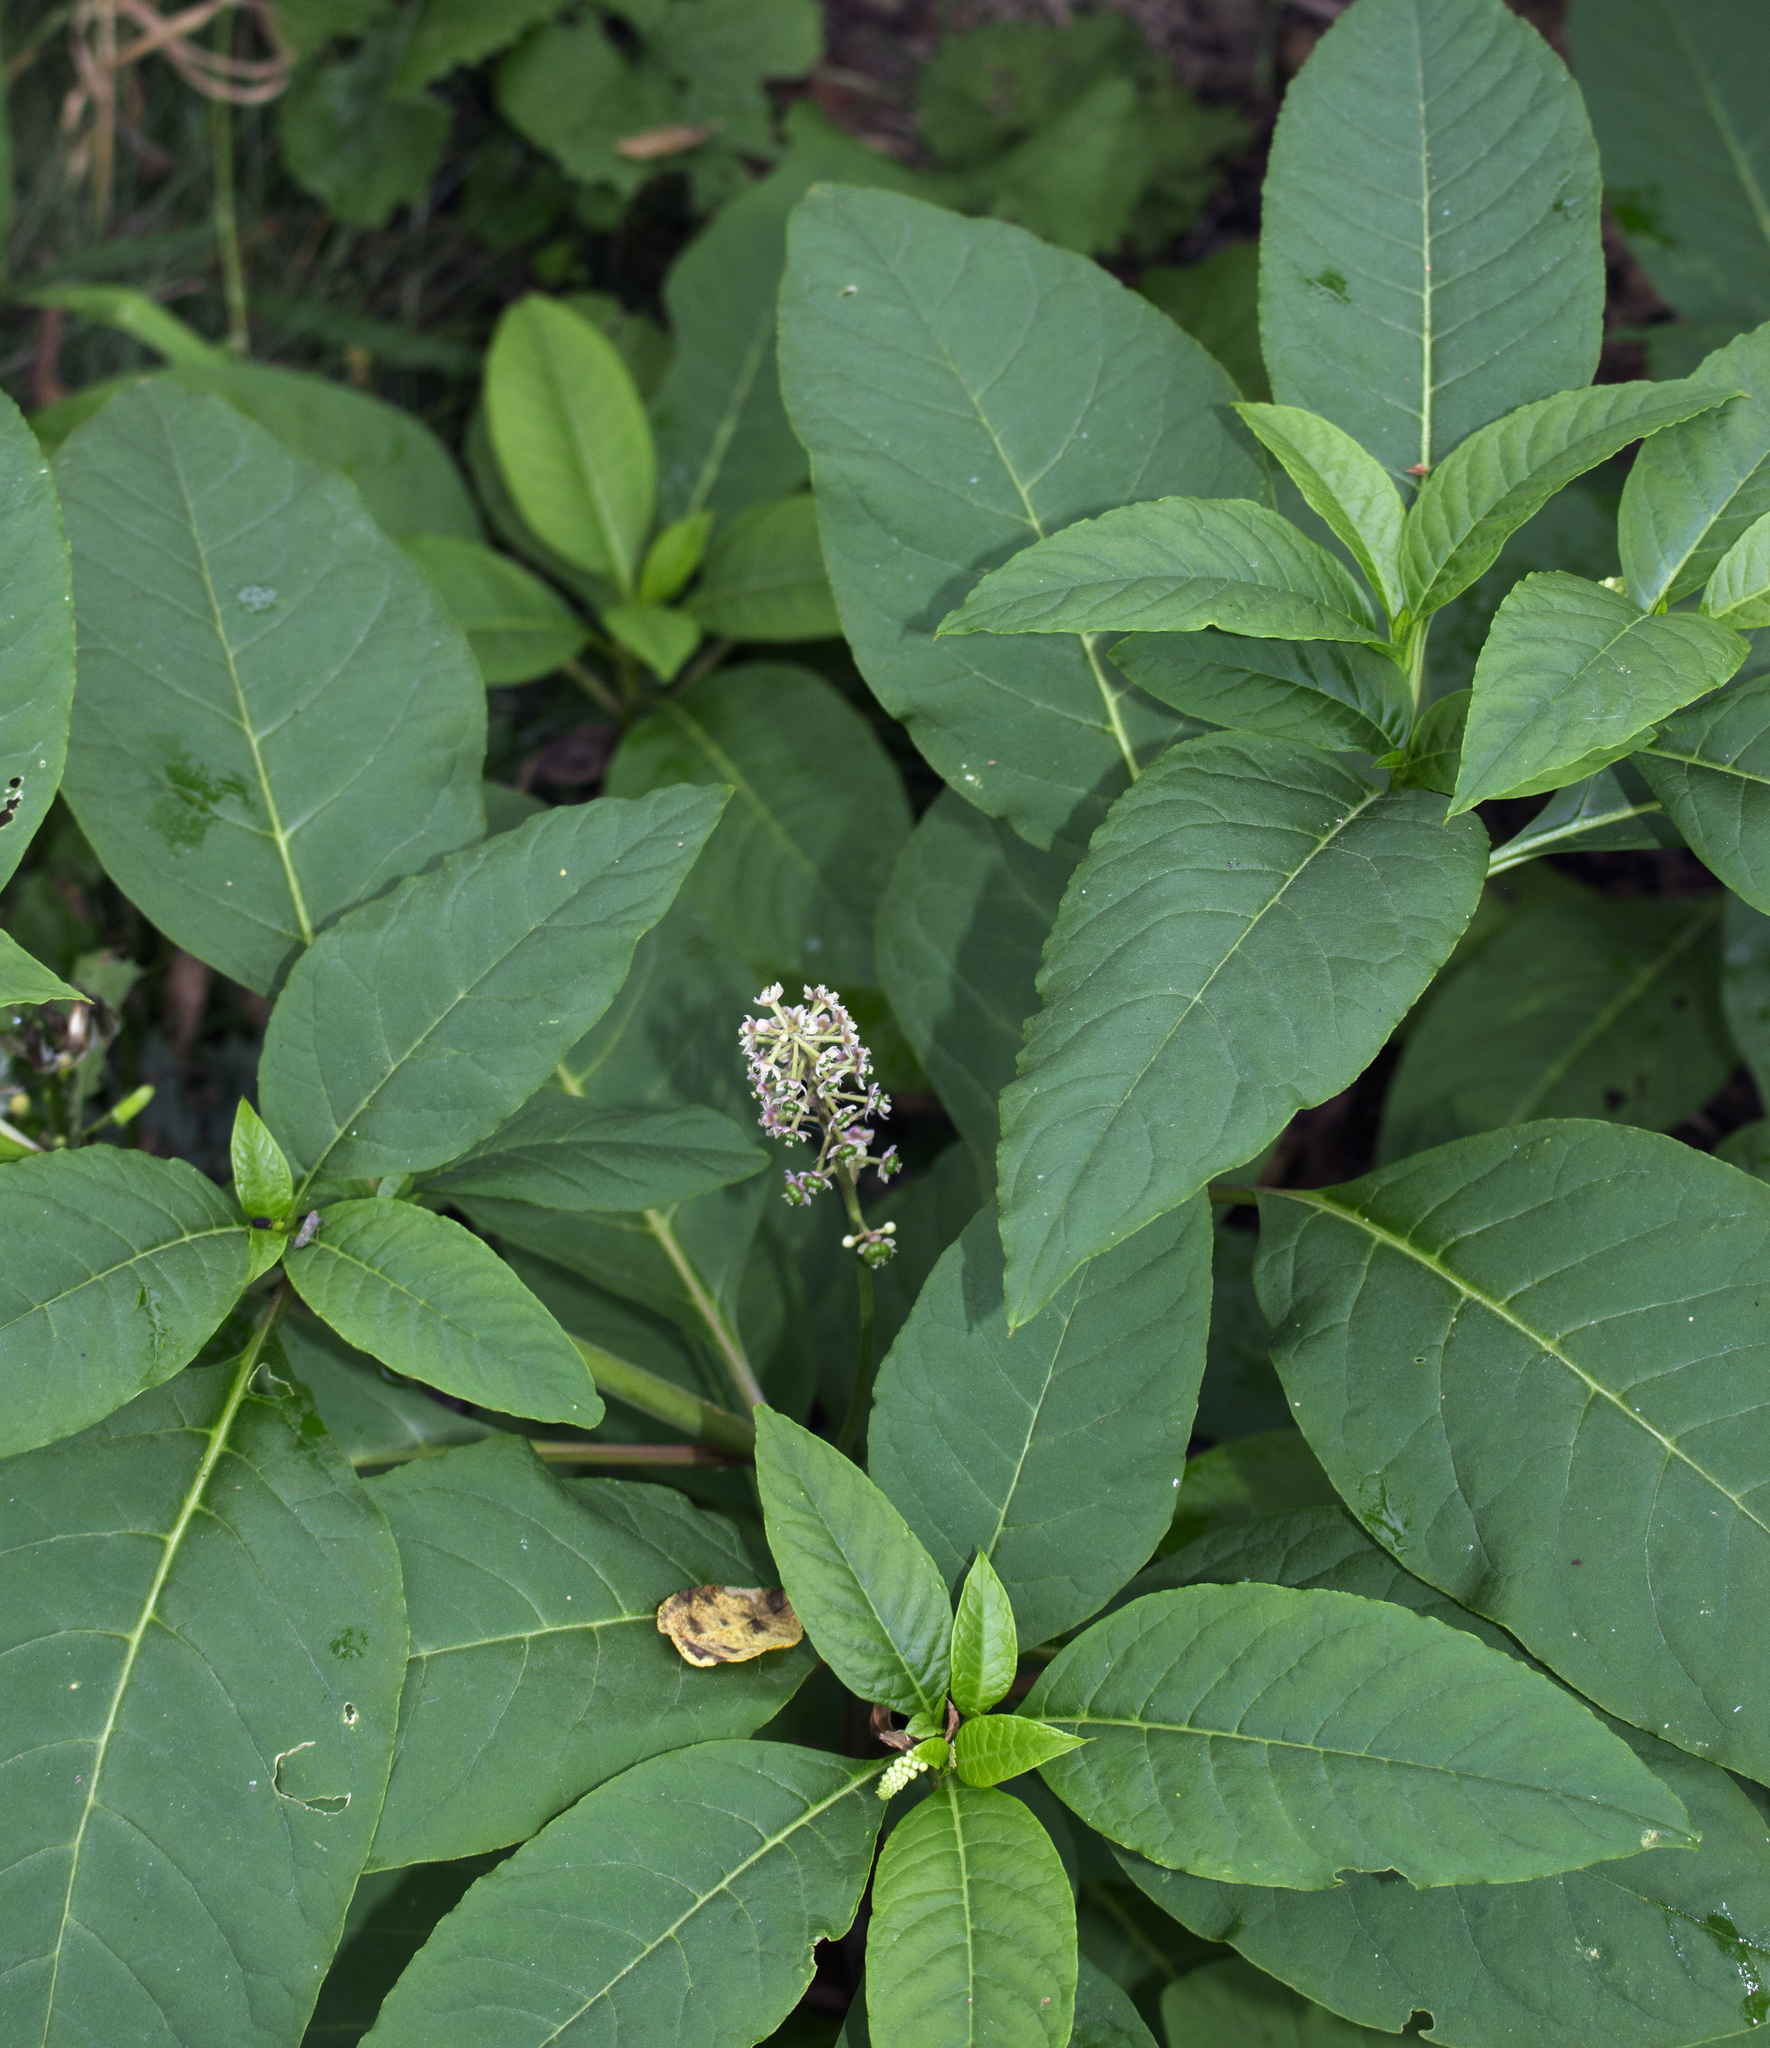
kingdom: Plantae
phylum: Tracheophyta
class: Magnoliopsida
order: Caryophyllales
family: Phytolaccaceae
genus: Phytolacca
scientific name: Phytolacca americana
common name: American pokeweed
